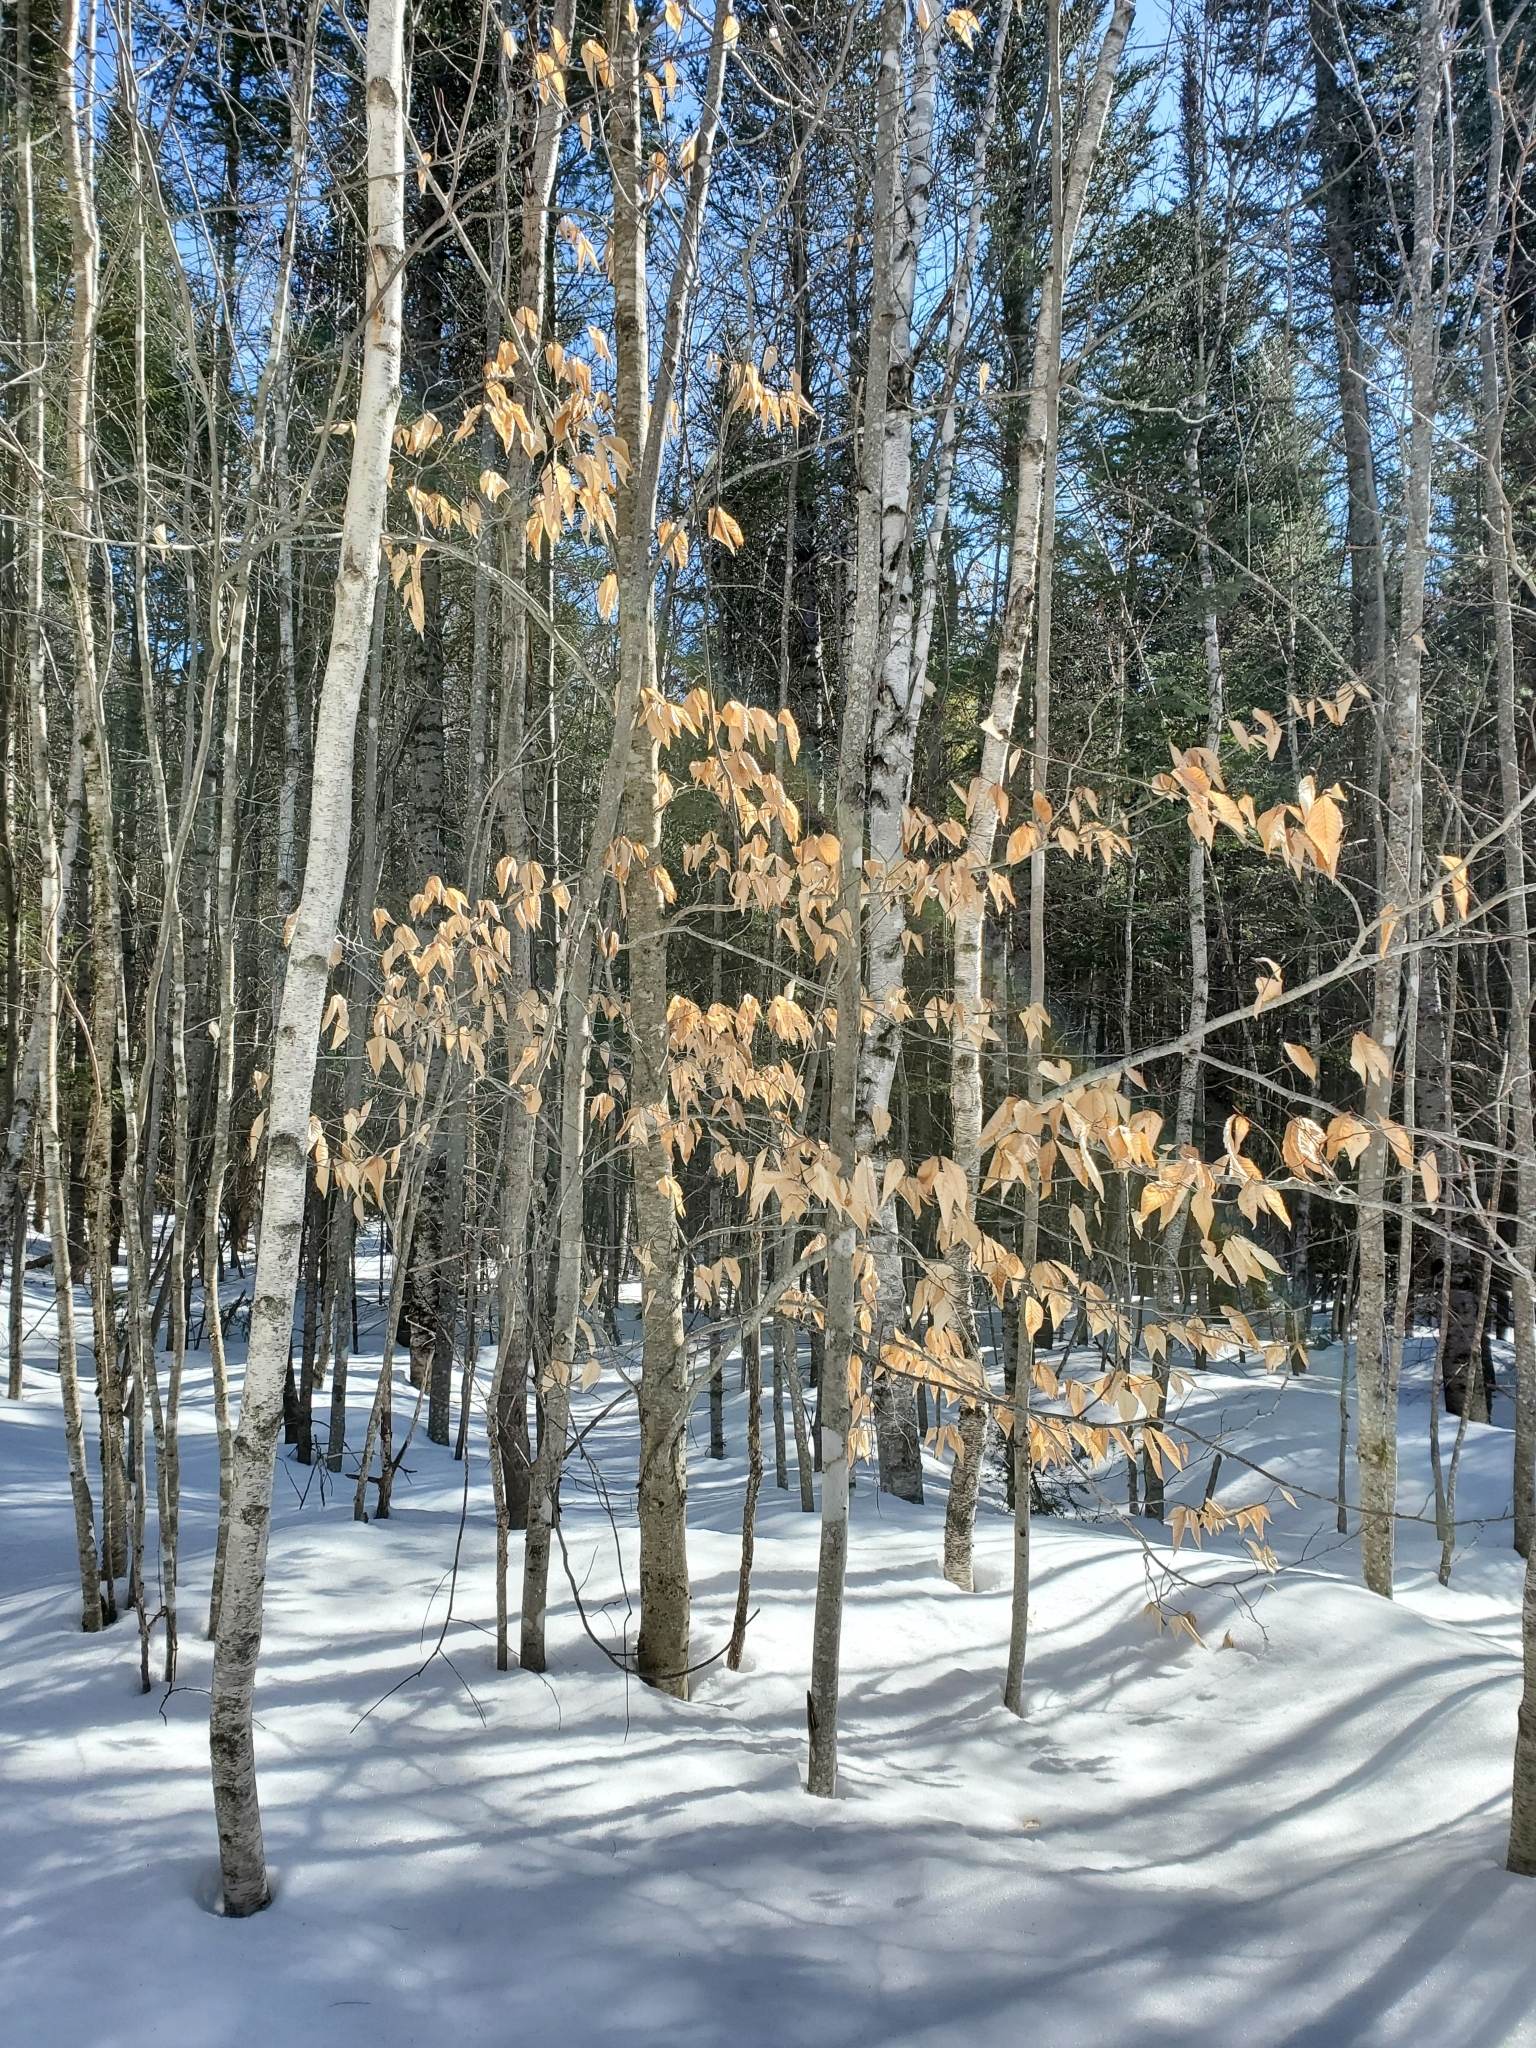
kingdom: Plantae
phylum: Tracheophyta
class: Magnoliopsida
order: Fagales
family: Fagaceae
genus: Fagus
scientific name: Fagus grandifolia
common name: American beech
